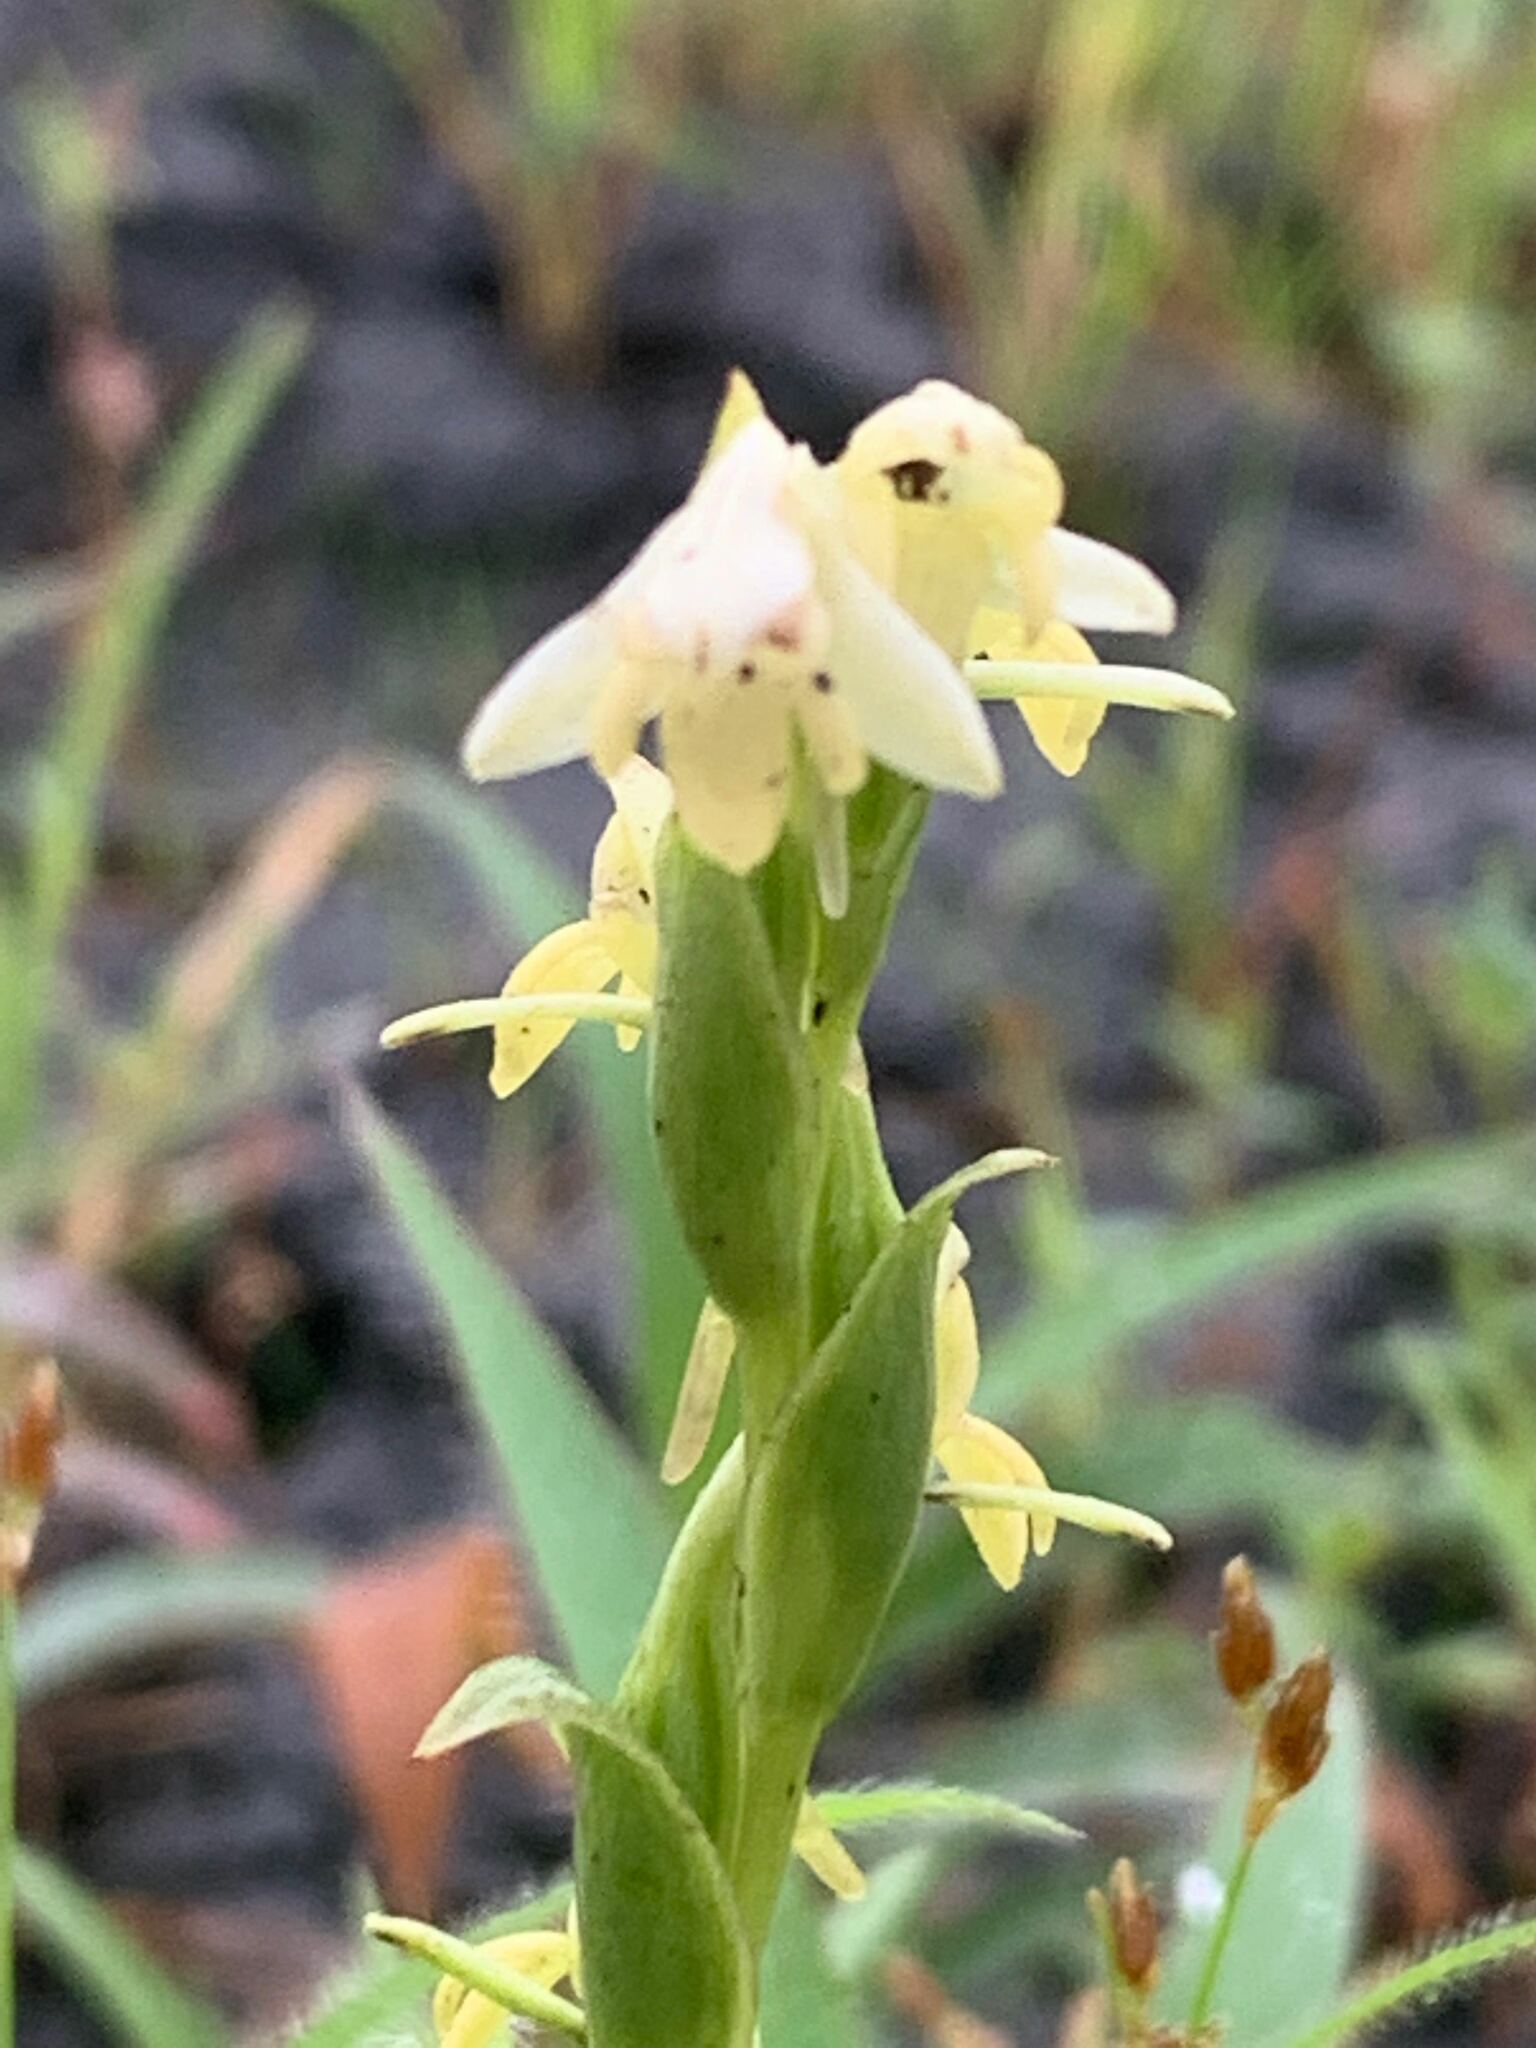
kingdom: Plantae
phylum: Tracheophyta
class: Liliopsida
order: Asparagales
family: Orchidaceae
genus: Habenaria
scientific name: Habenaria heyneana
